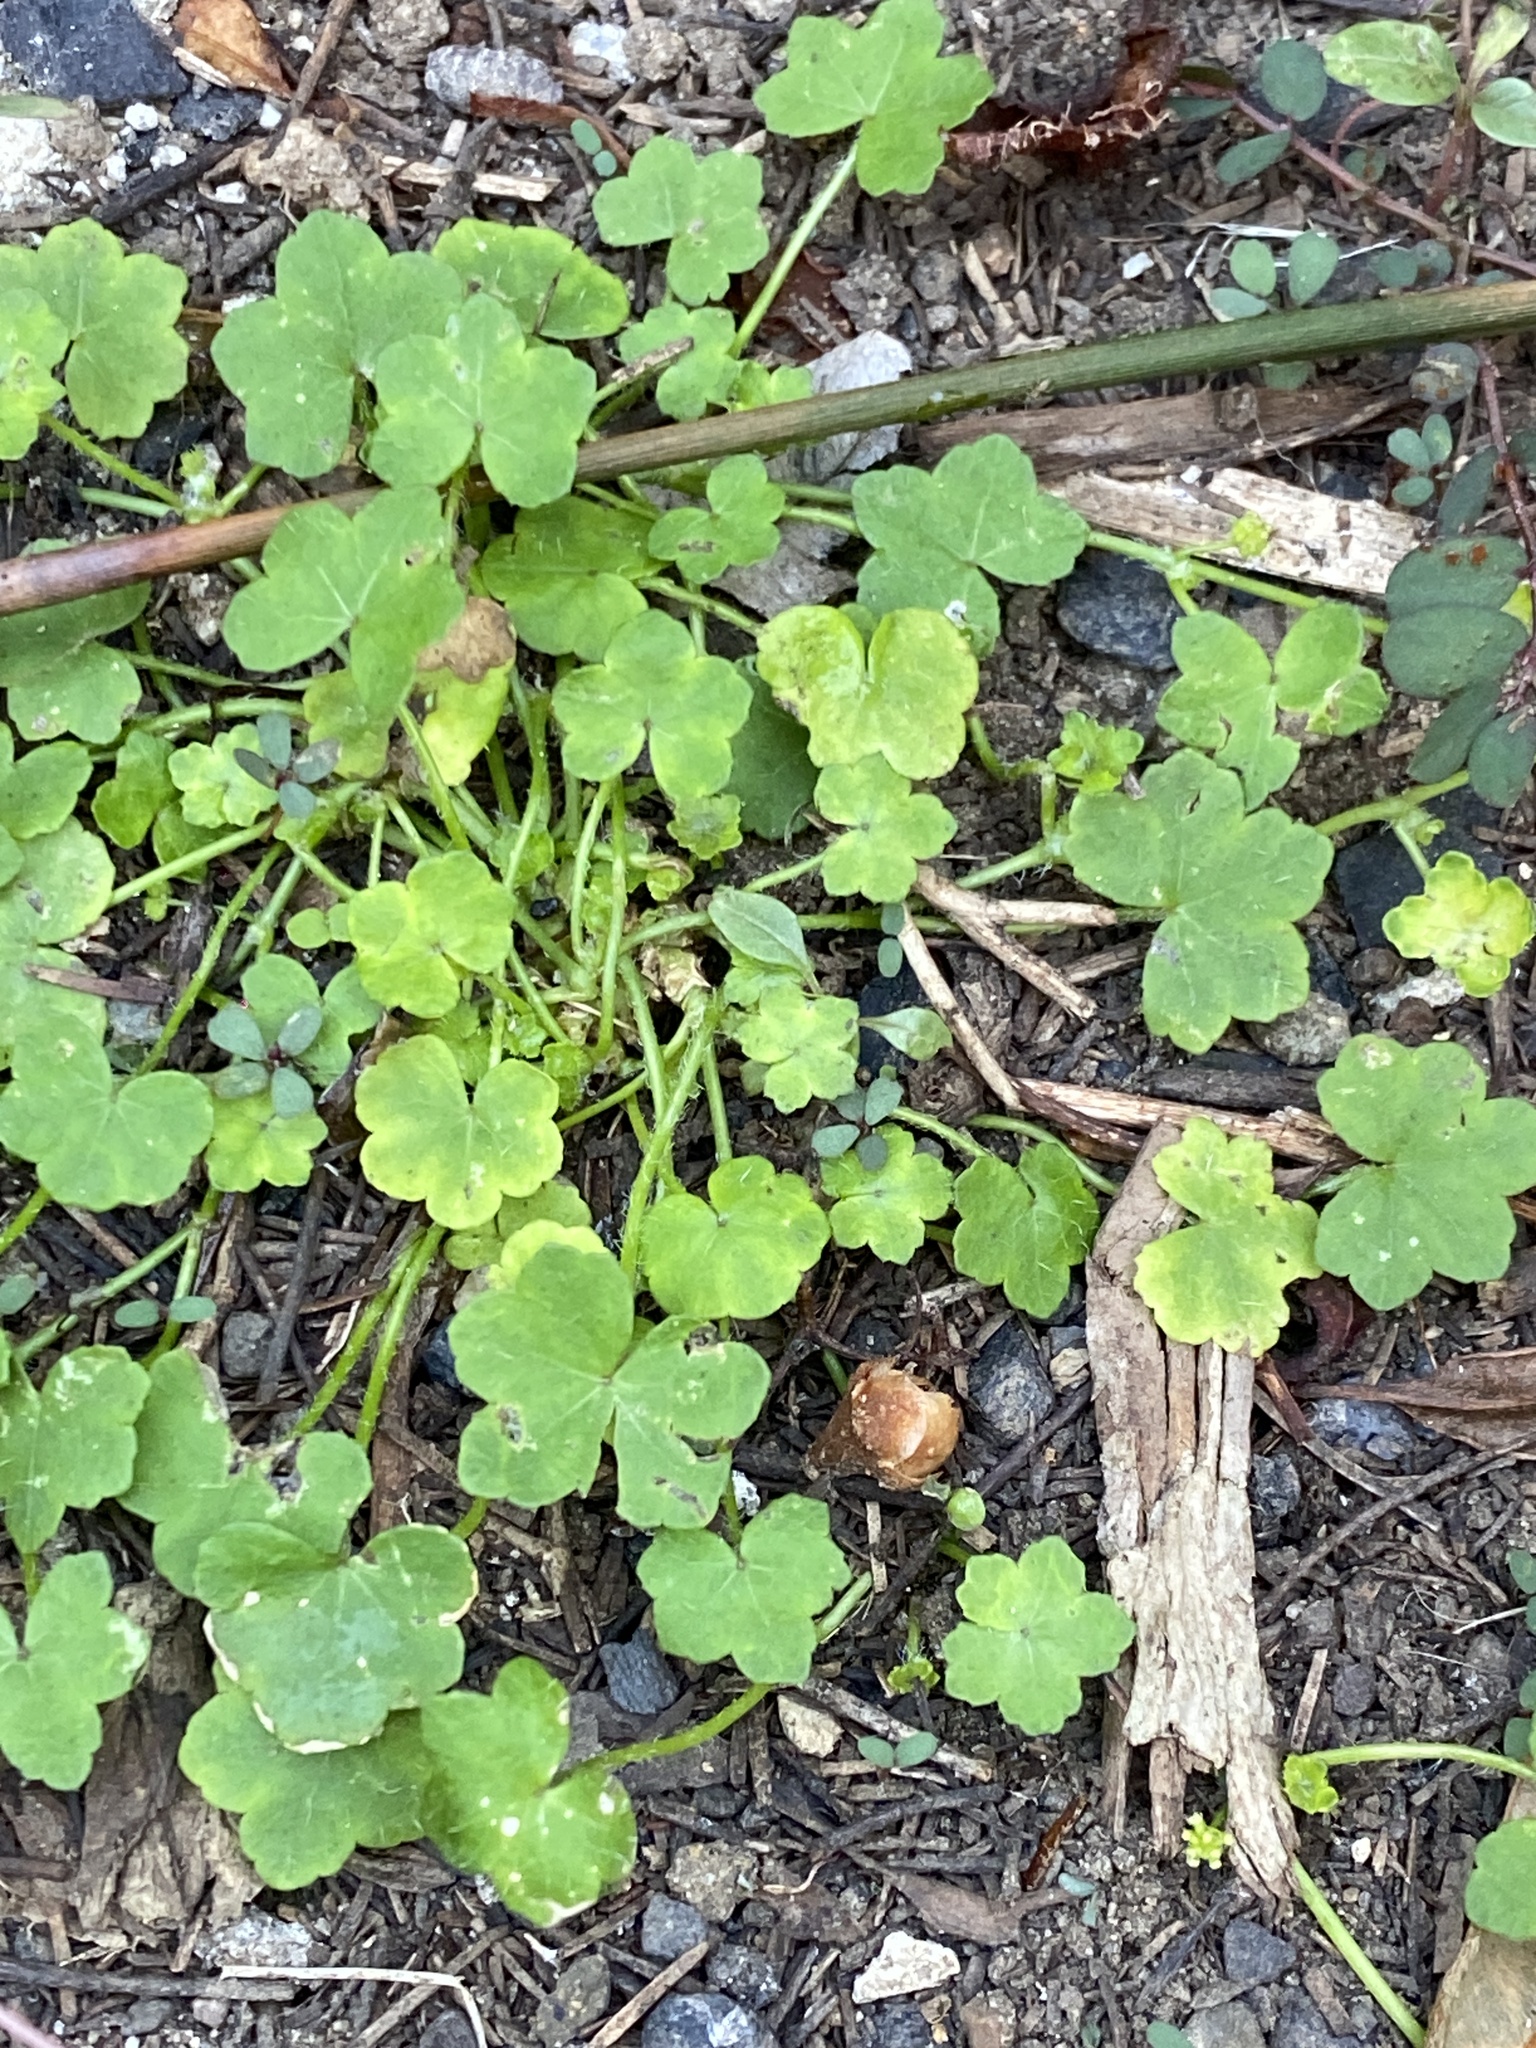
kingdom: Plantae
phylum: Tracheophyta
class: Magnoliopsida
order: Apiales
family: Araliaceae
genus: Hydrocotyle
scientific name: Hydrocotyle acutiloba
